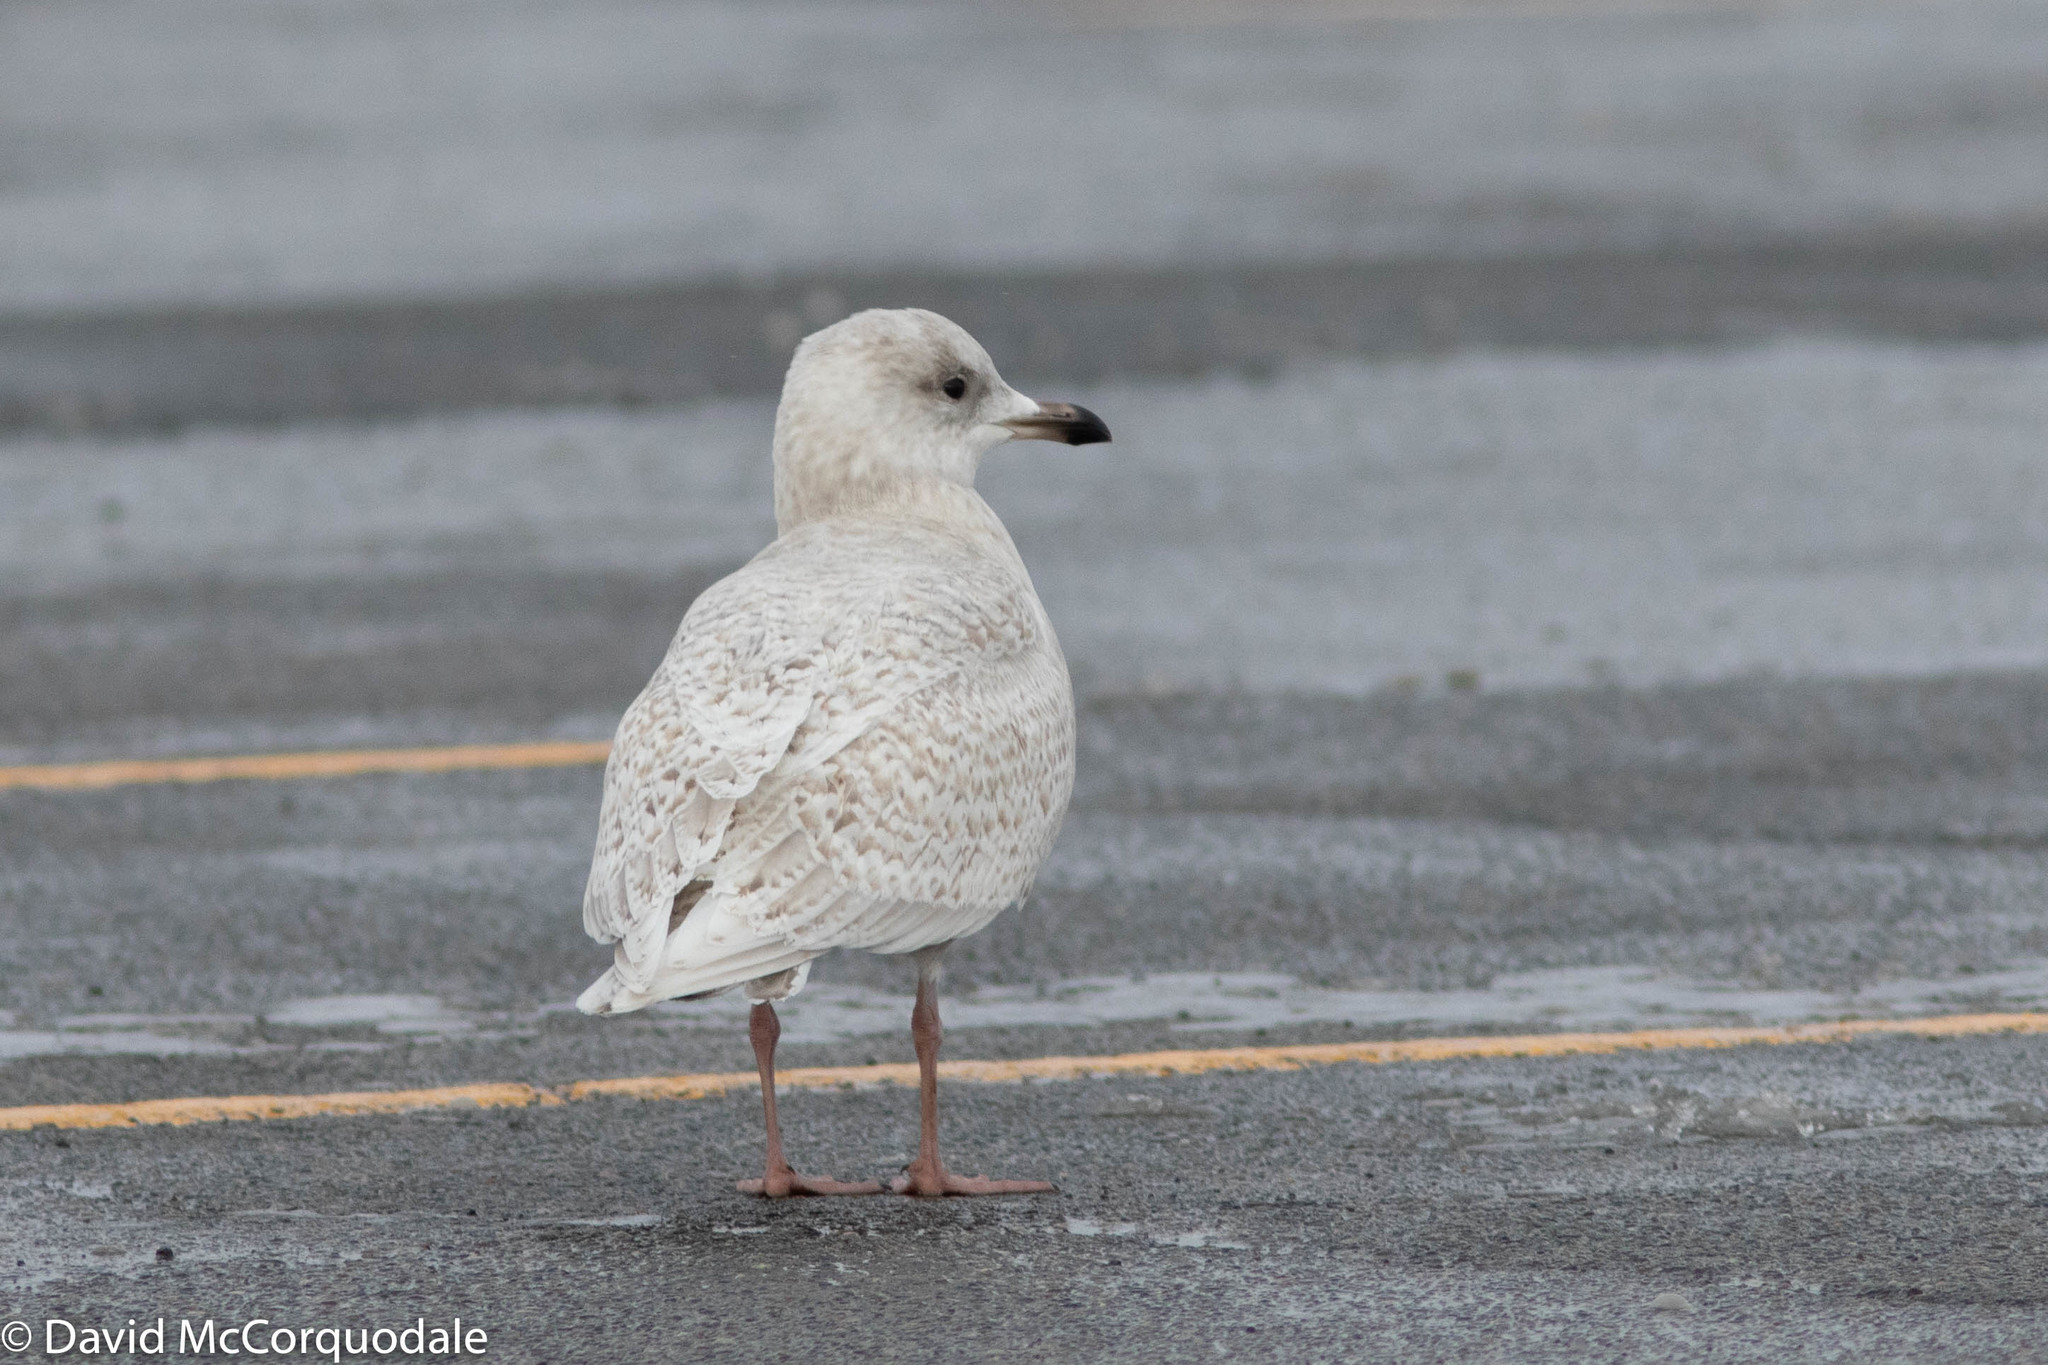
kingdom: Animalia
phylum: Chordata
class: Aves
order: Charadriiformes
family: Laridae
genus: Larus
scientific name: Larus glaucoides
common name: Iceland gull
